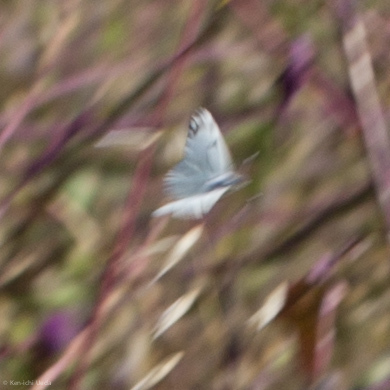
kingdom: Animalia
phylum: Arthropoda
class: Insecta
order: Lepidoptera
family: Pieridae
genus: Euchloe
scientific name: Euchloe ausonides
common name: Creamy marblewing
